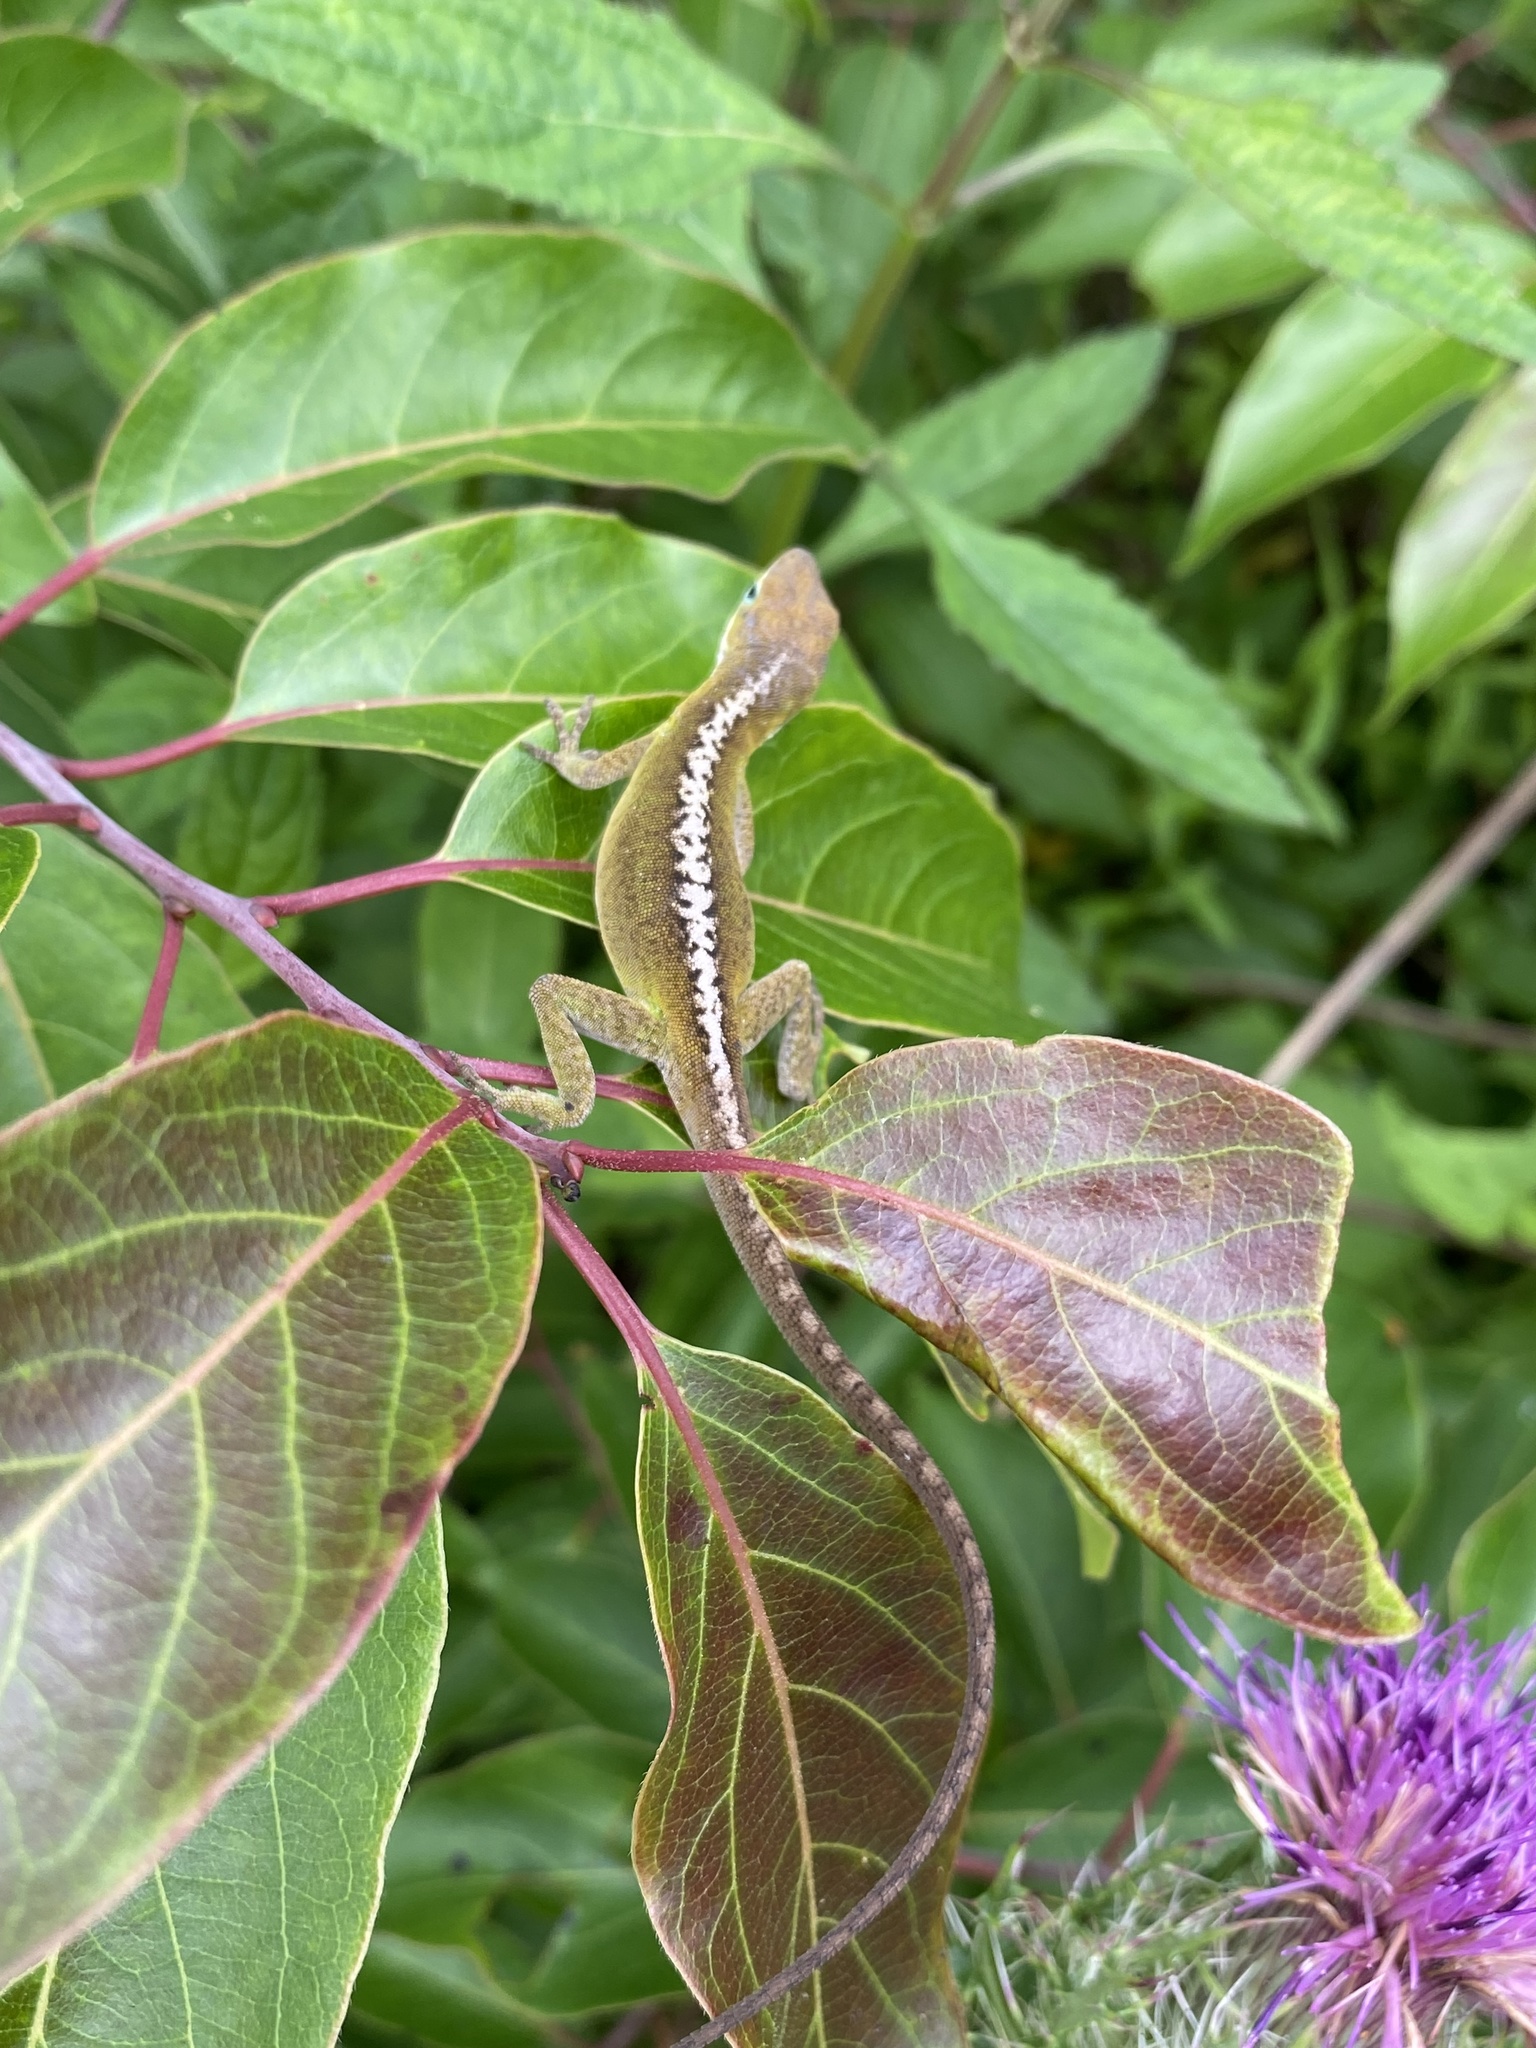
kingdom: Animalia
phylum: Chordata
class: Squamata
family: Dactyloidae
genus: Anolis
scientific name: Anolis carolinensis
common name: Green anole
